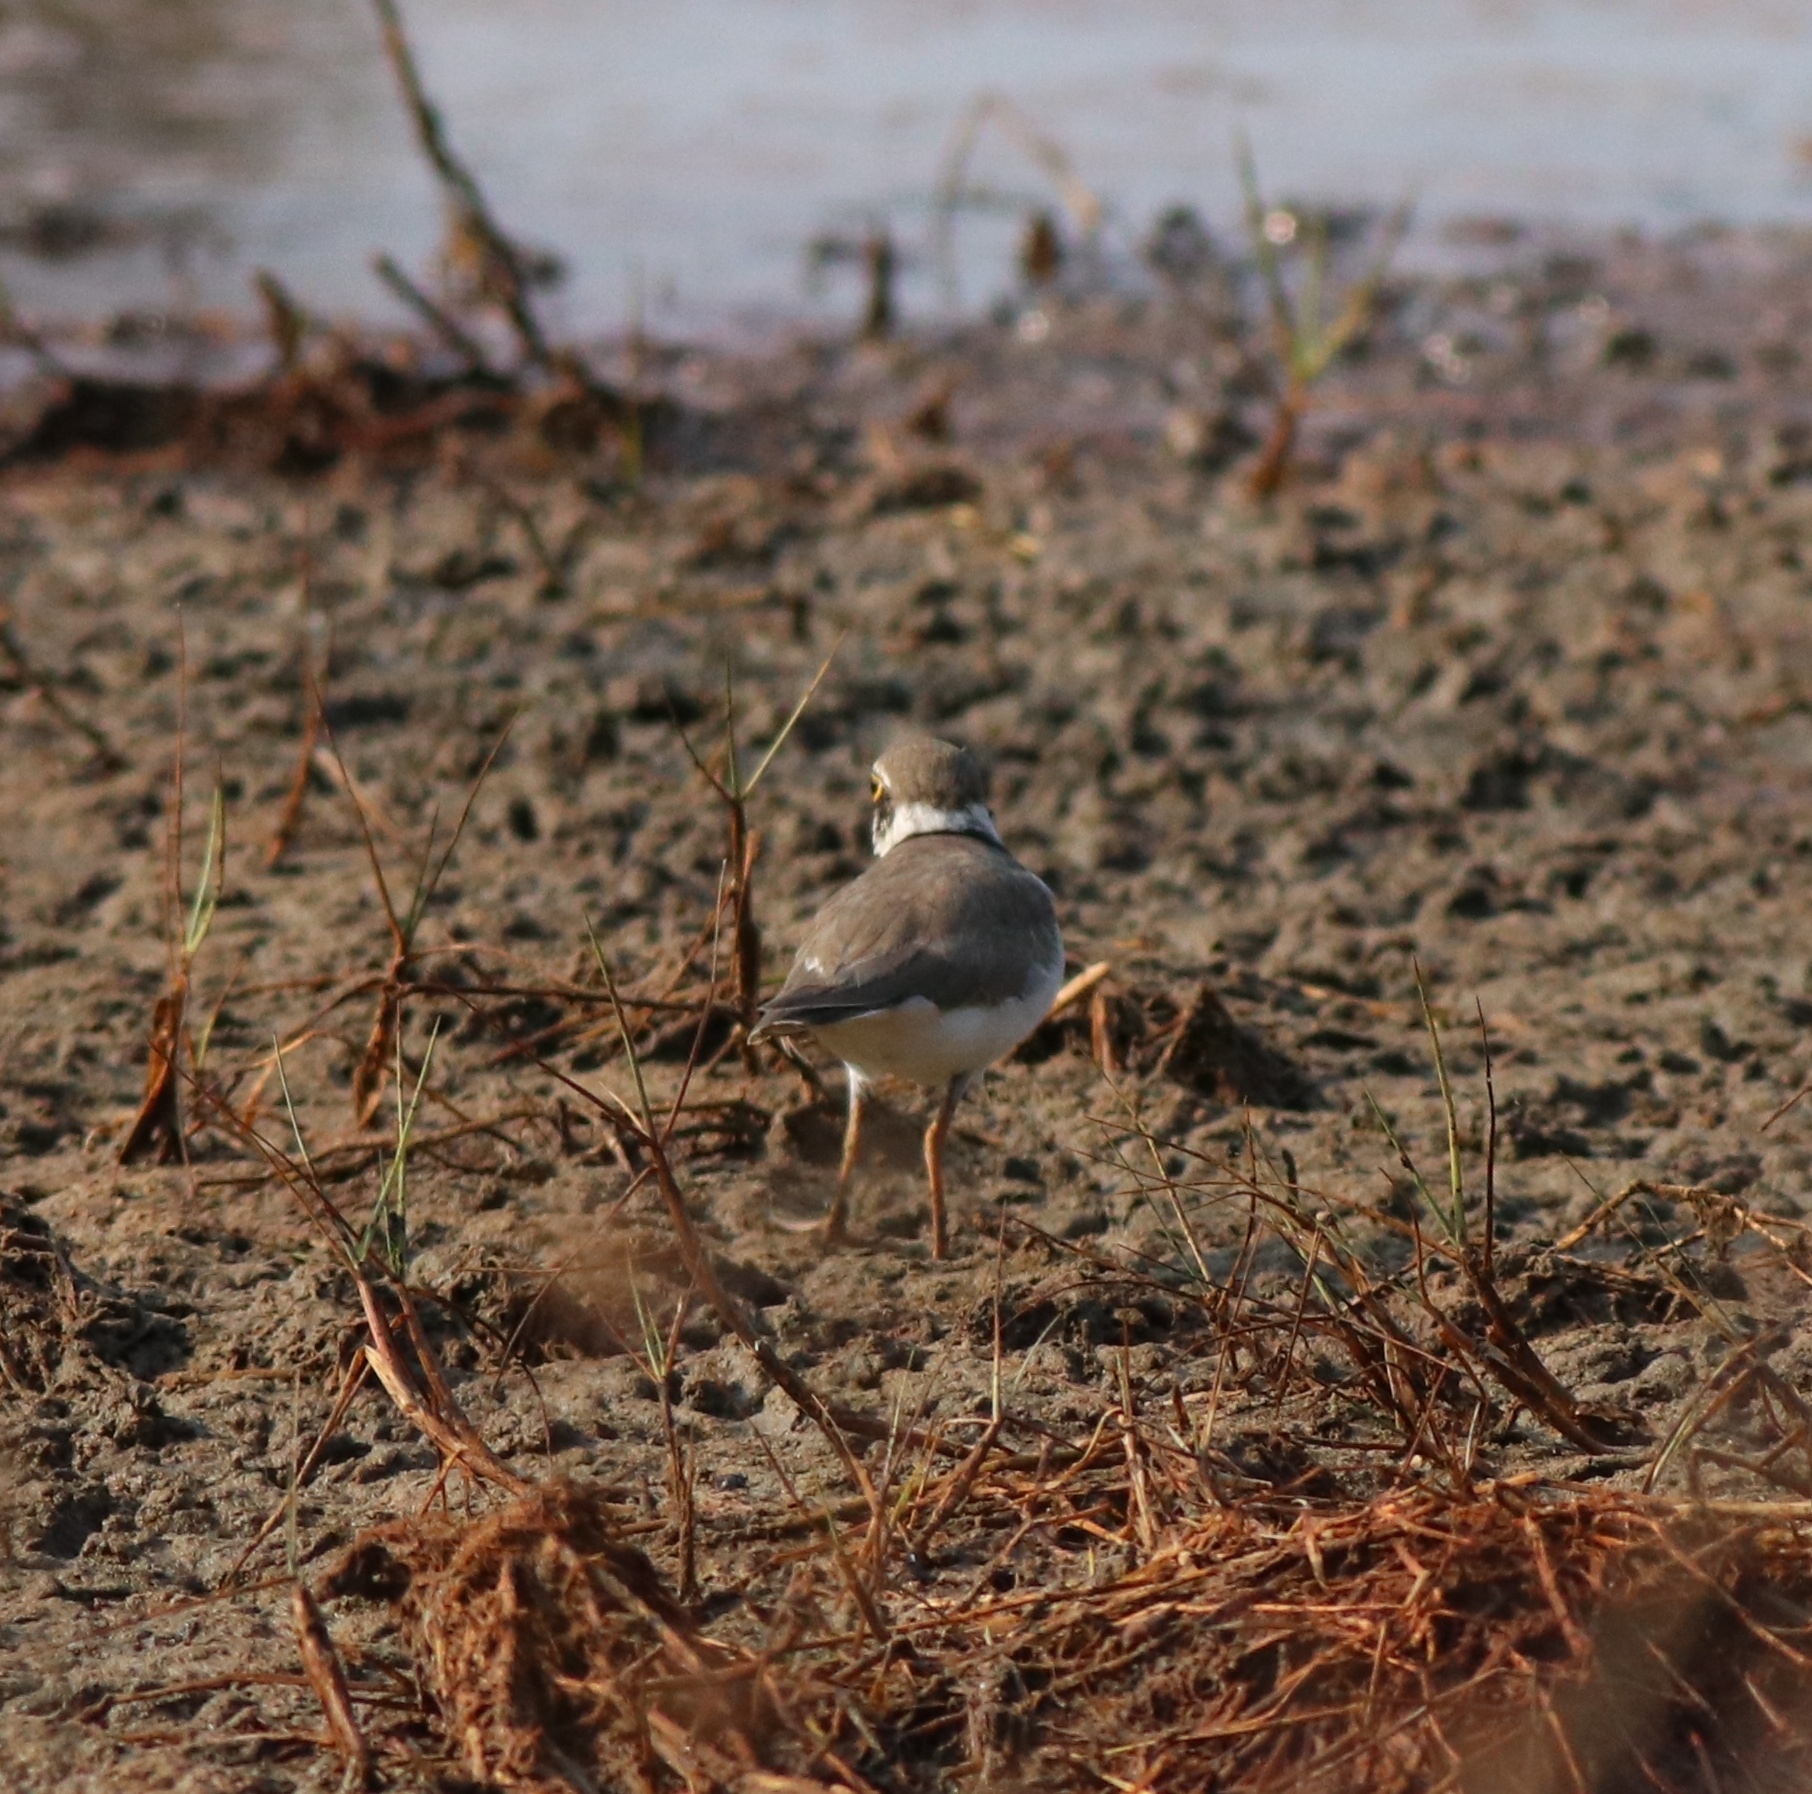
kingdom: Animalia
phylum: Chordata
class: Aves
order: Charadriiformes
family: Charadriidae
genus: Charadrius
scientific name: Charadrius dubius
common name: Little ringed plover
